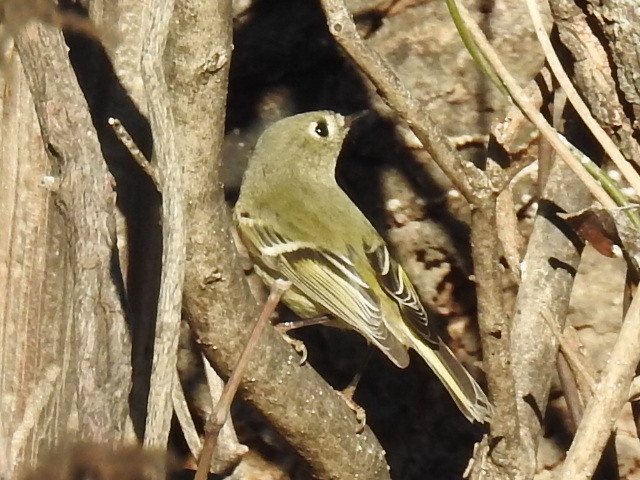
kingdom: Animalia
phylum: Chordata
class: Aves
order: Passeriformes
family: Regulidae
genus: Regulus
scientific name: Regulus calendula
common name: Ruby-crowned kinglet
